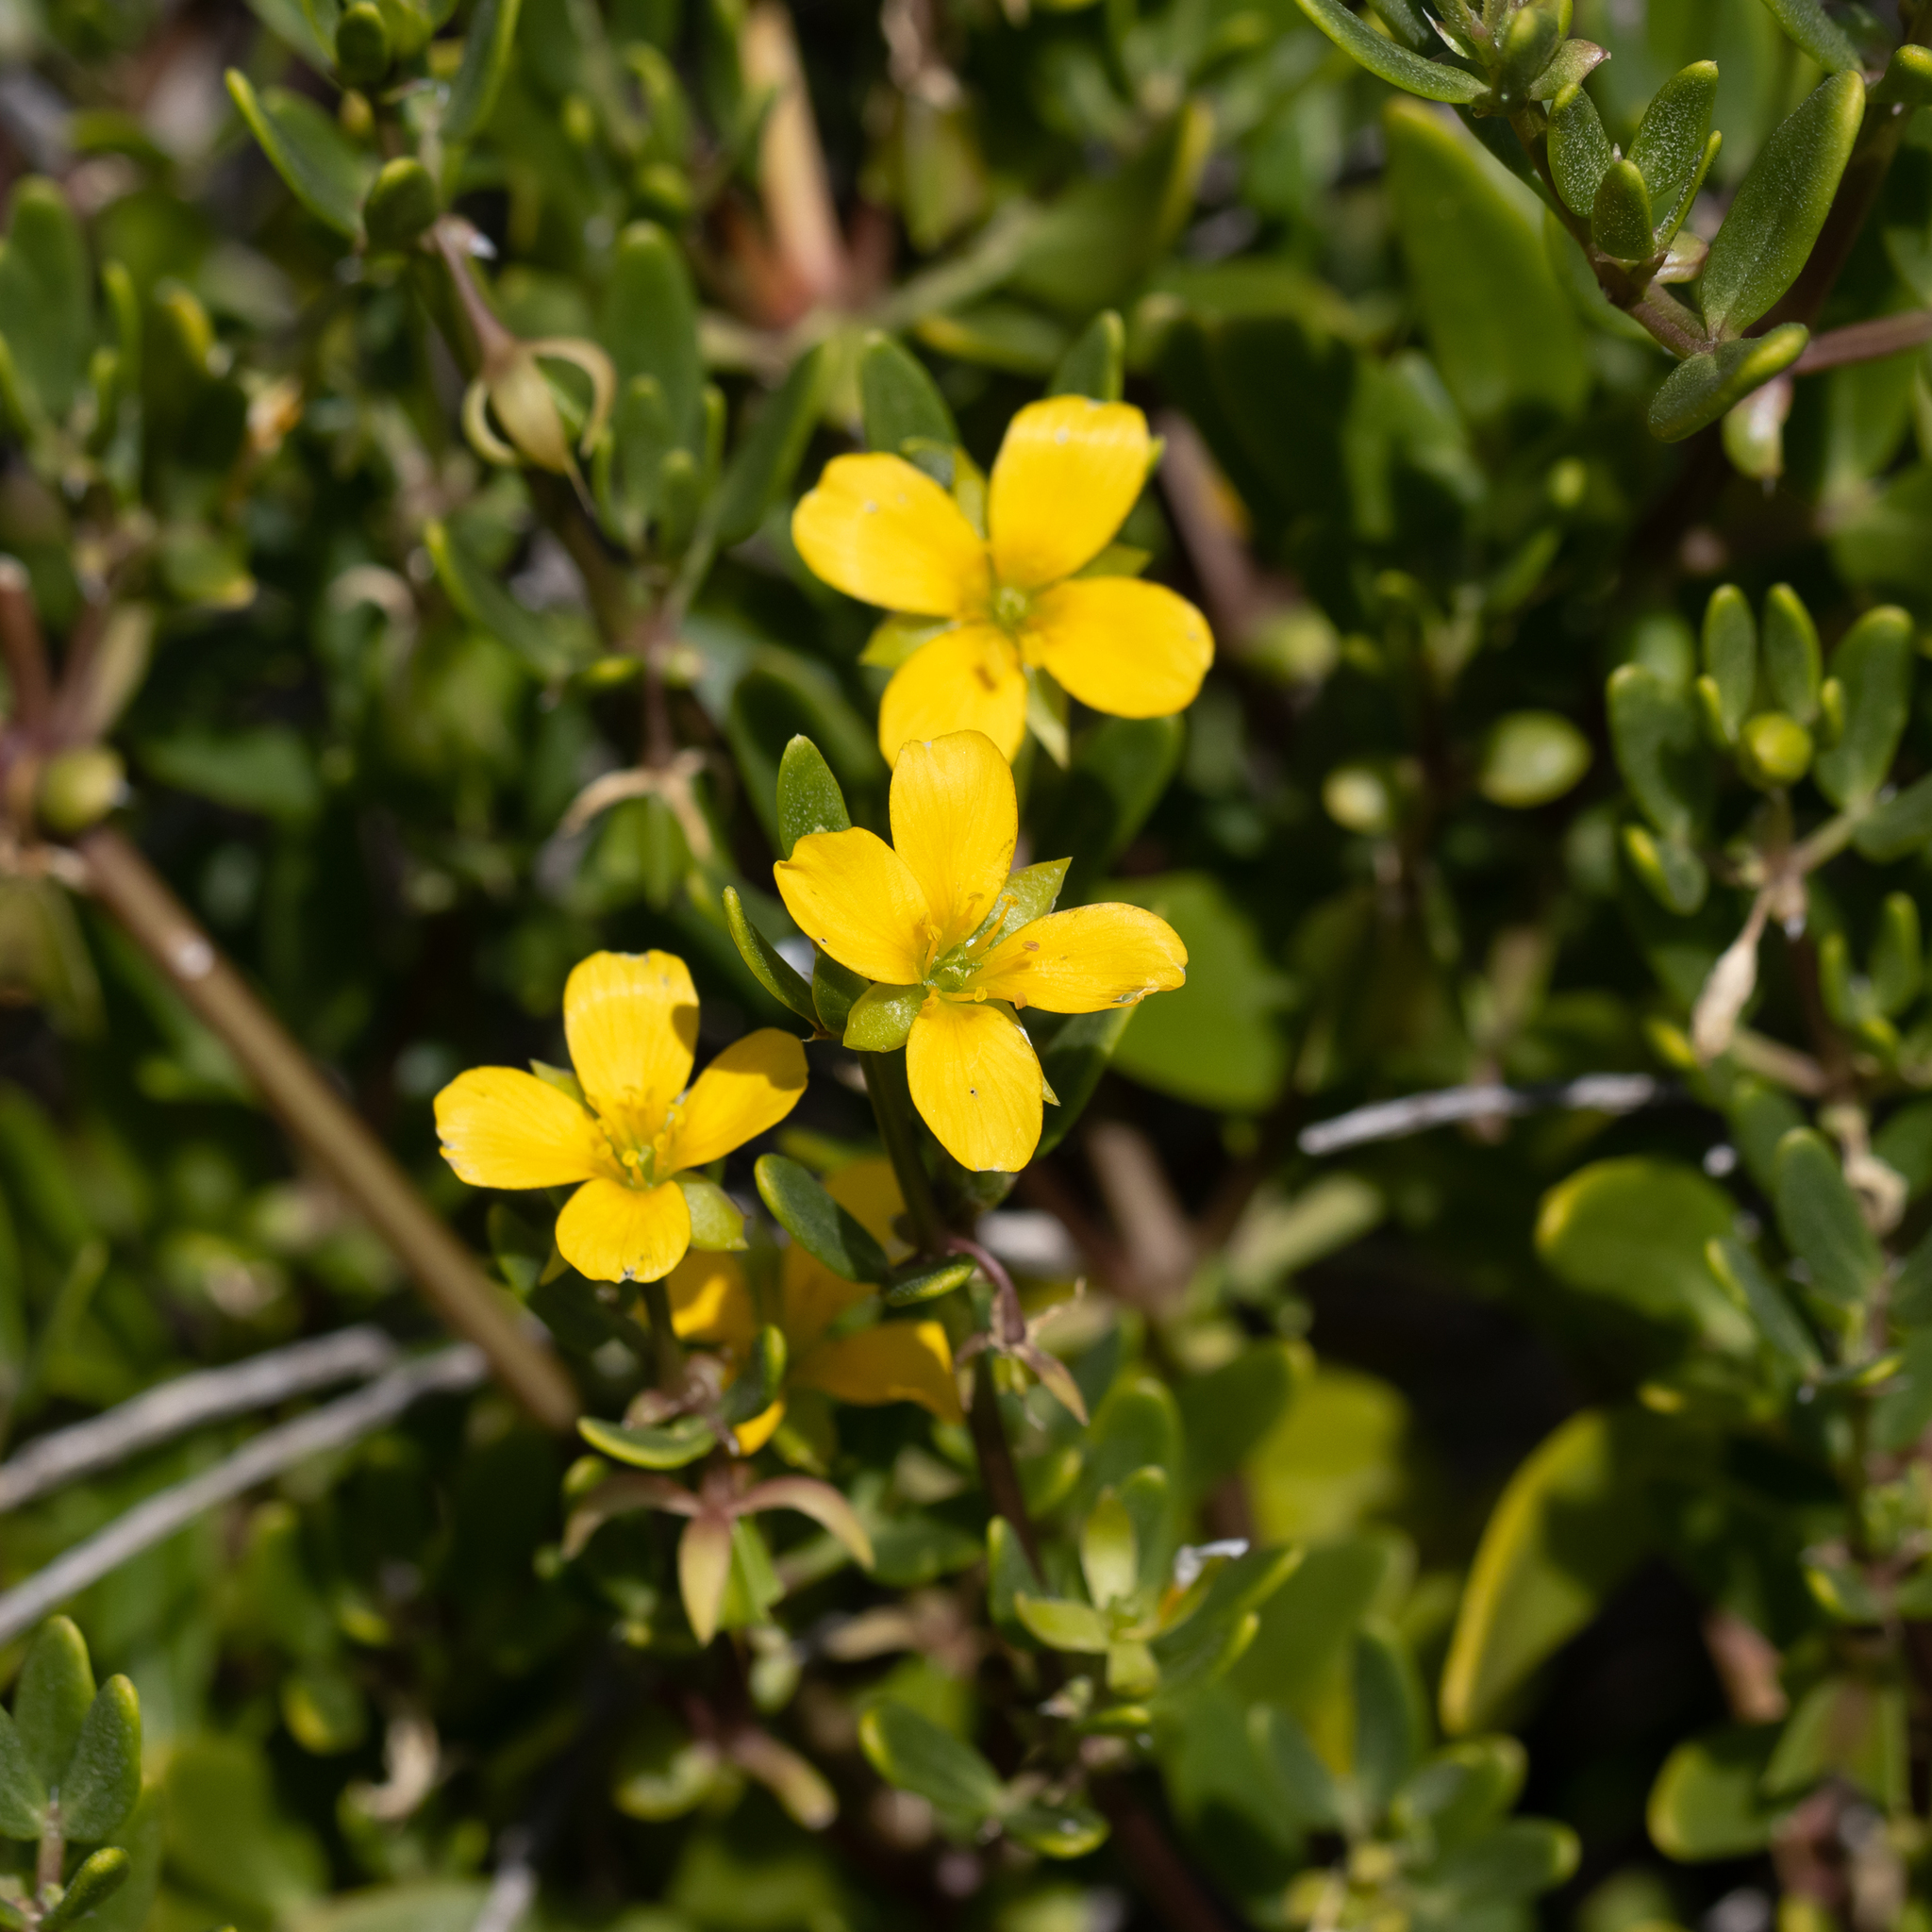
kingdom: Plantae
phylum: Tracheophyta
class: Magnoliopsida
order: Zygophyllales
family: Zygophyllaceae
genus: Roepera
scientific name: Roepera billardieri
